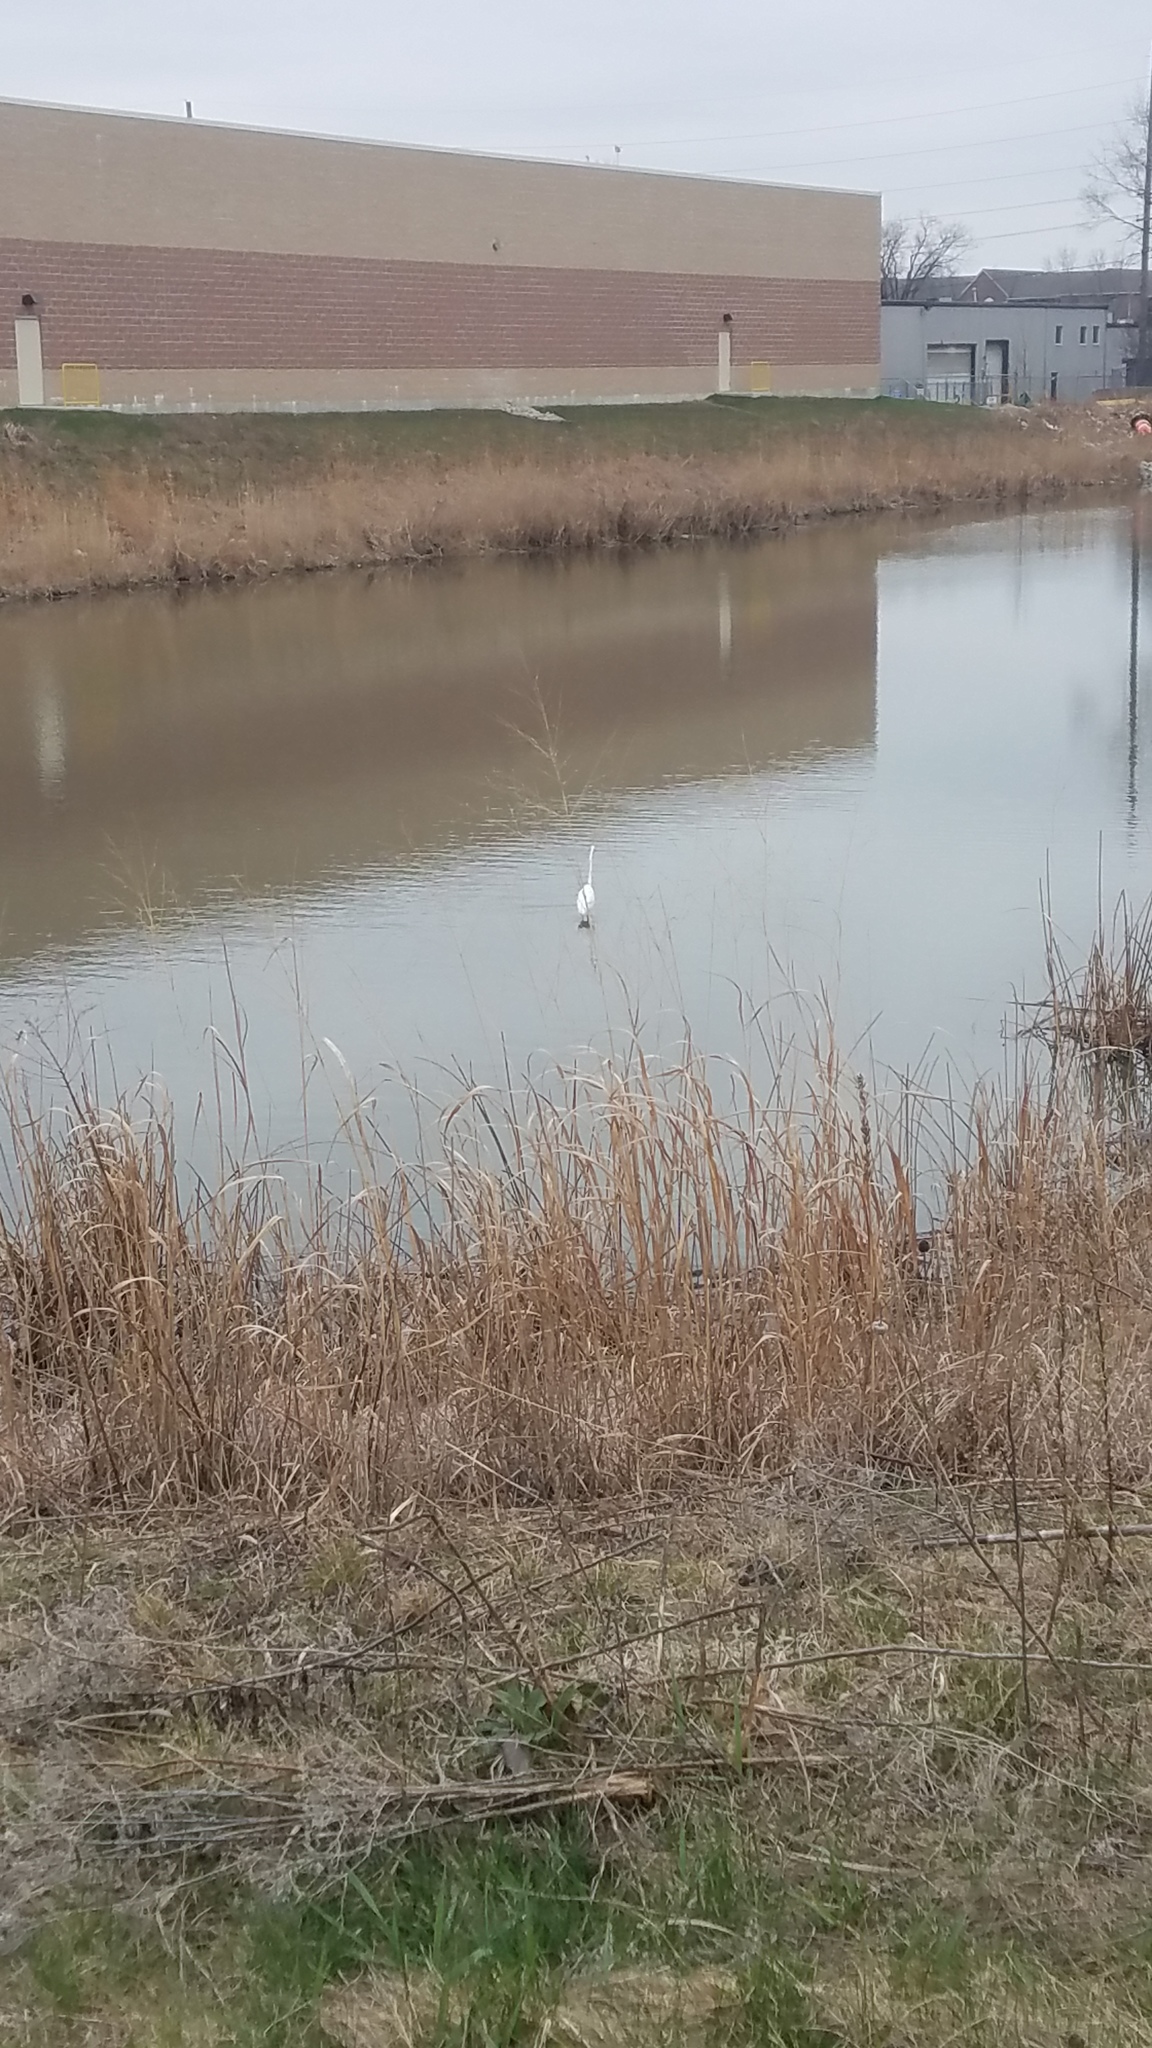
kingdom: Animalia
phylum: Chordata
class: Aves
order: Pelecaniformes
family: Ardeidae
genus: Ardea
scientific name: Ardea alba
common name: Great egret
